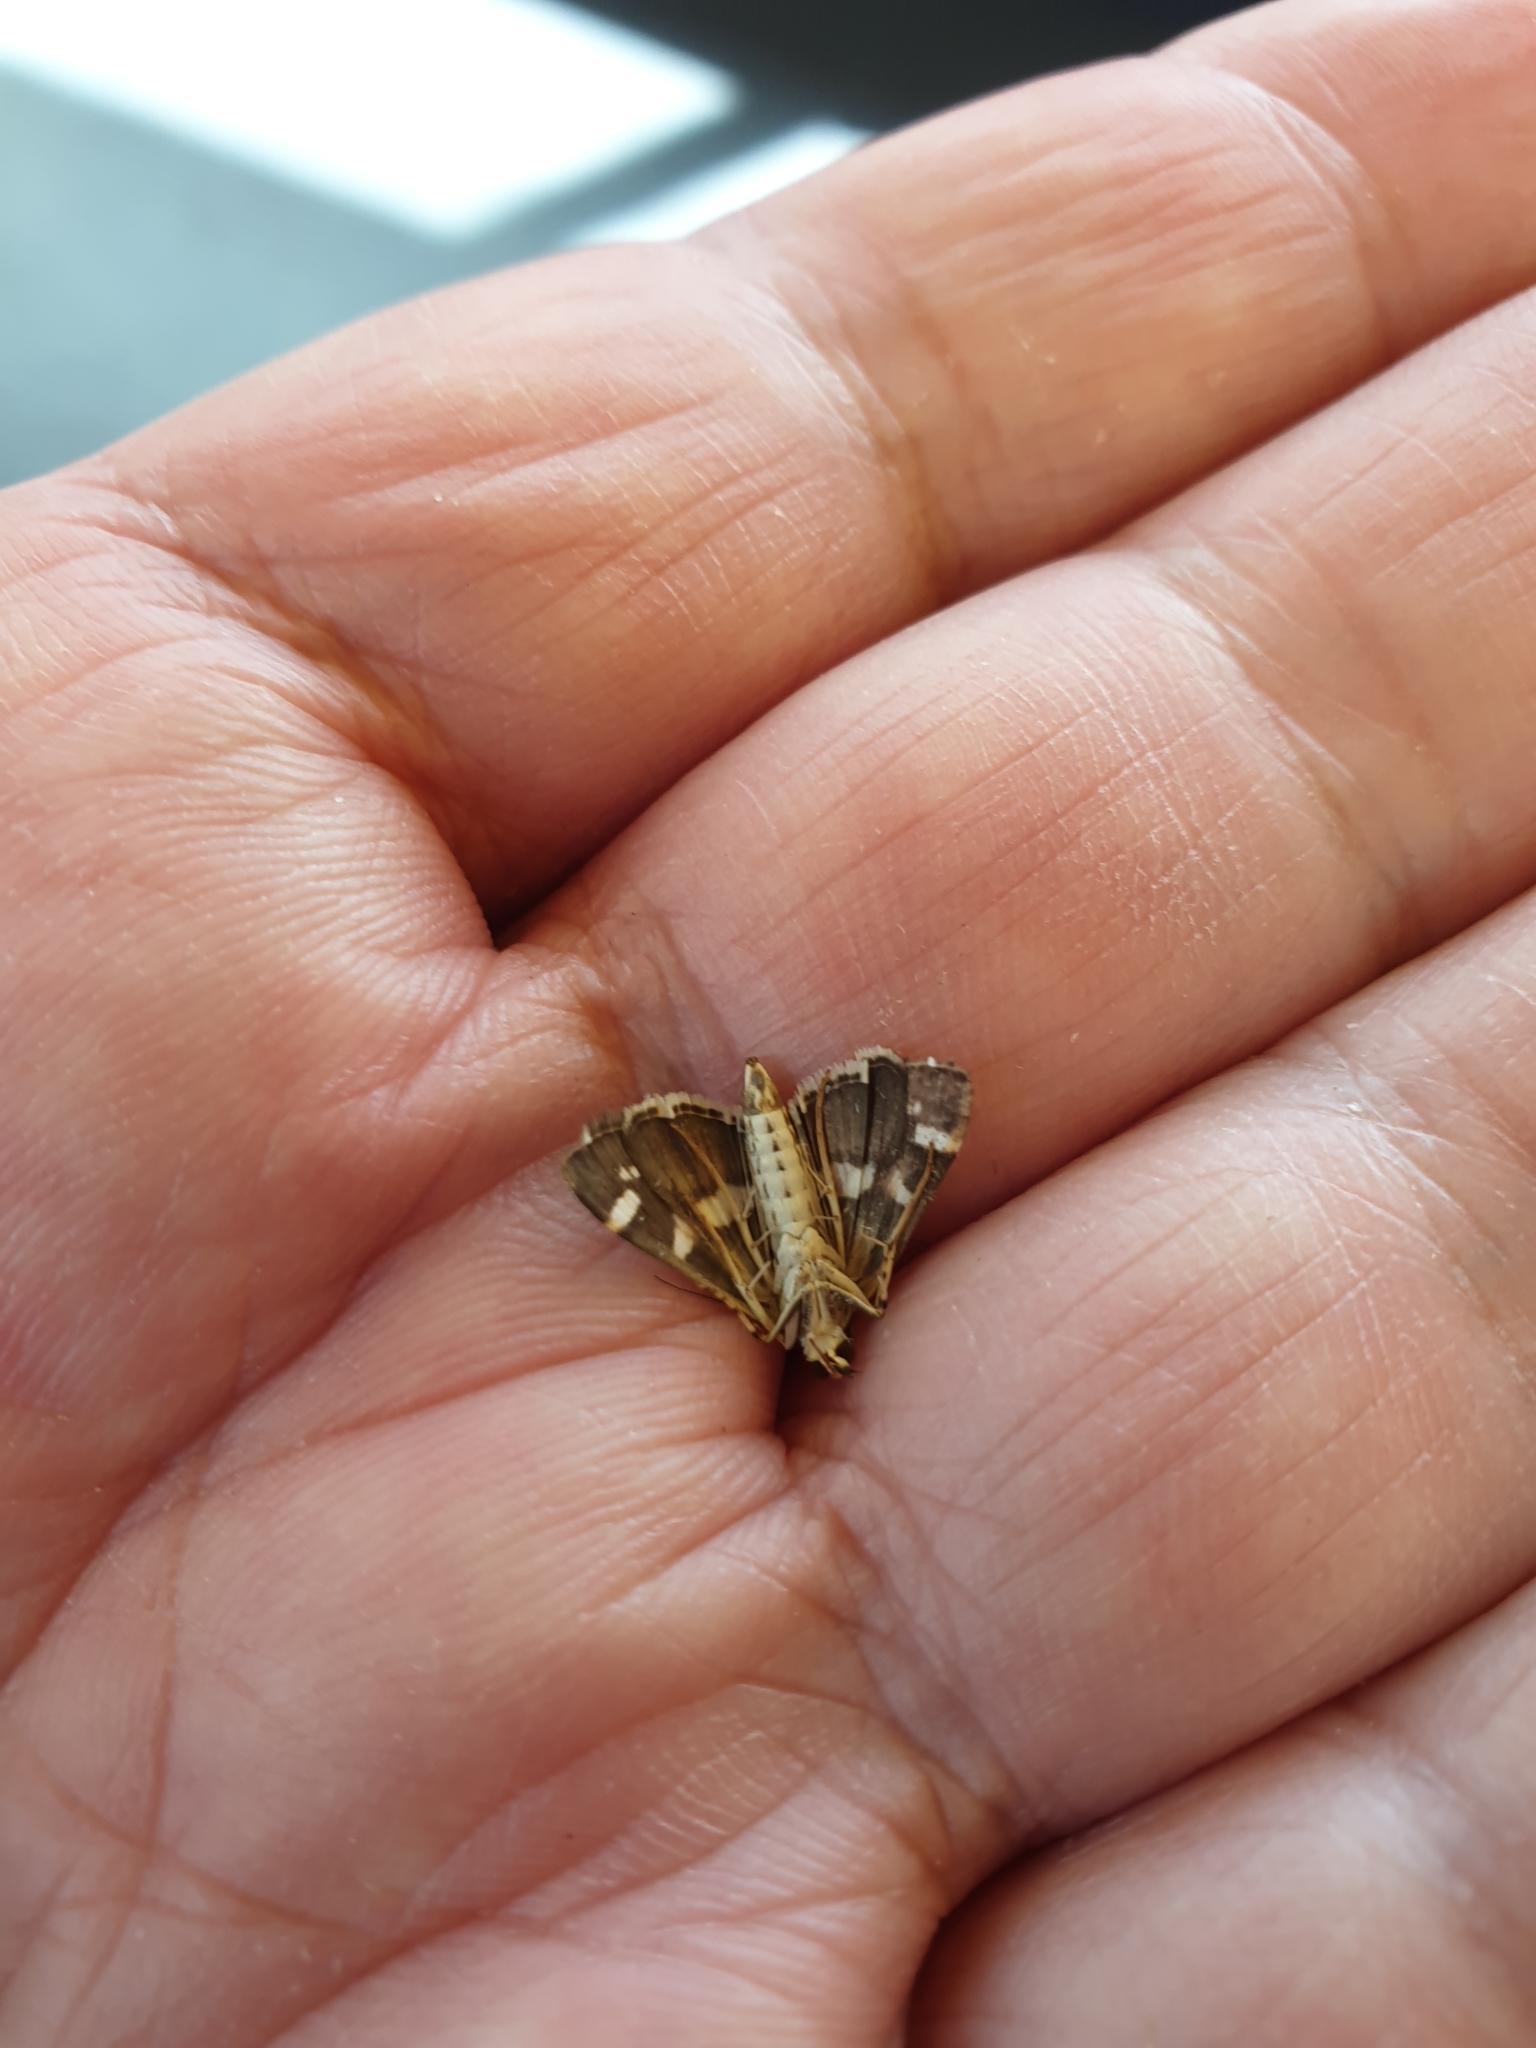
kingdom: Animalia
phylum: Arthropoda
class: Insecta
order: Lepidoptera
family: Crambidae
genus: Spoladea
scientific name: Spoladea recurvalis
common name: Beet webworm moth
